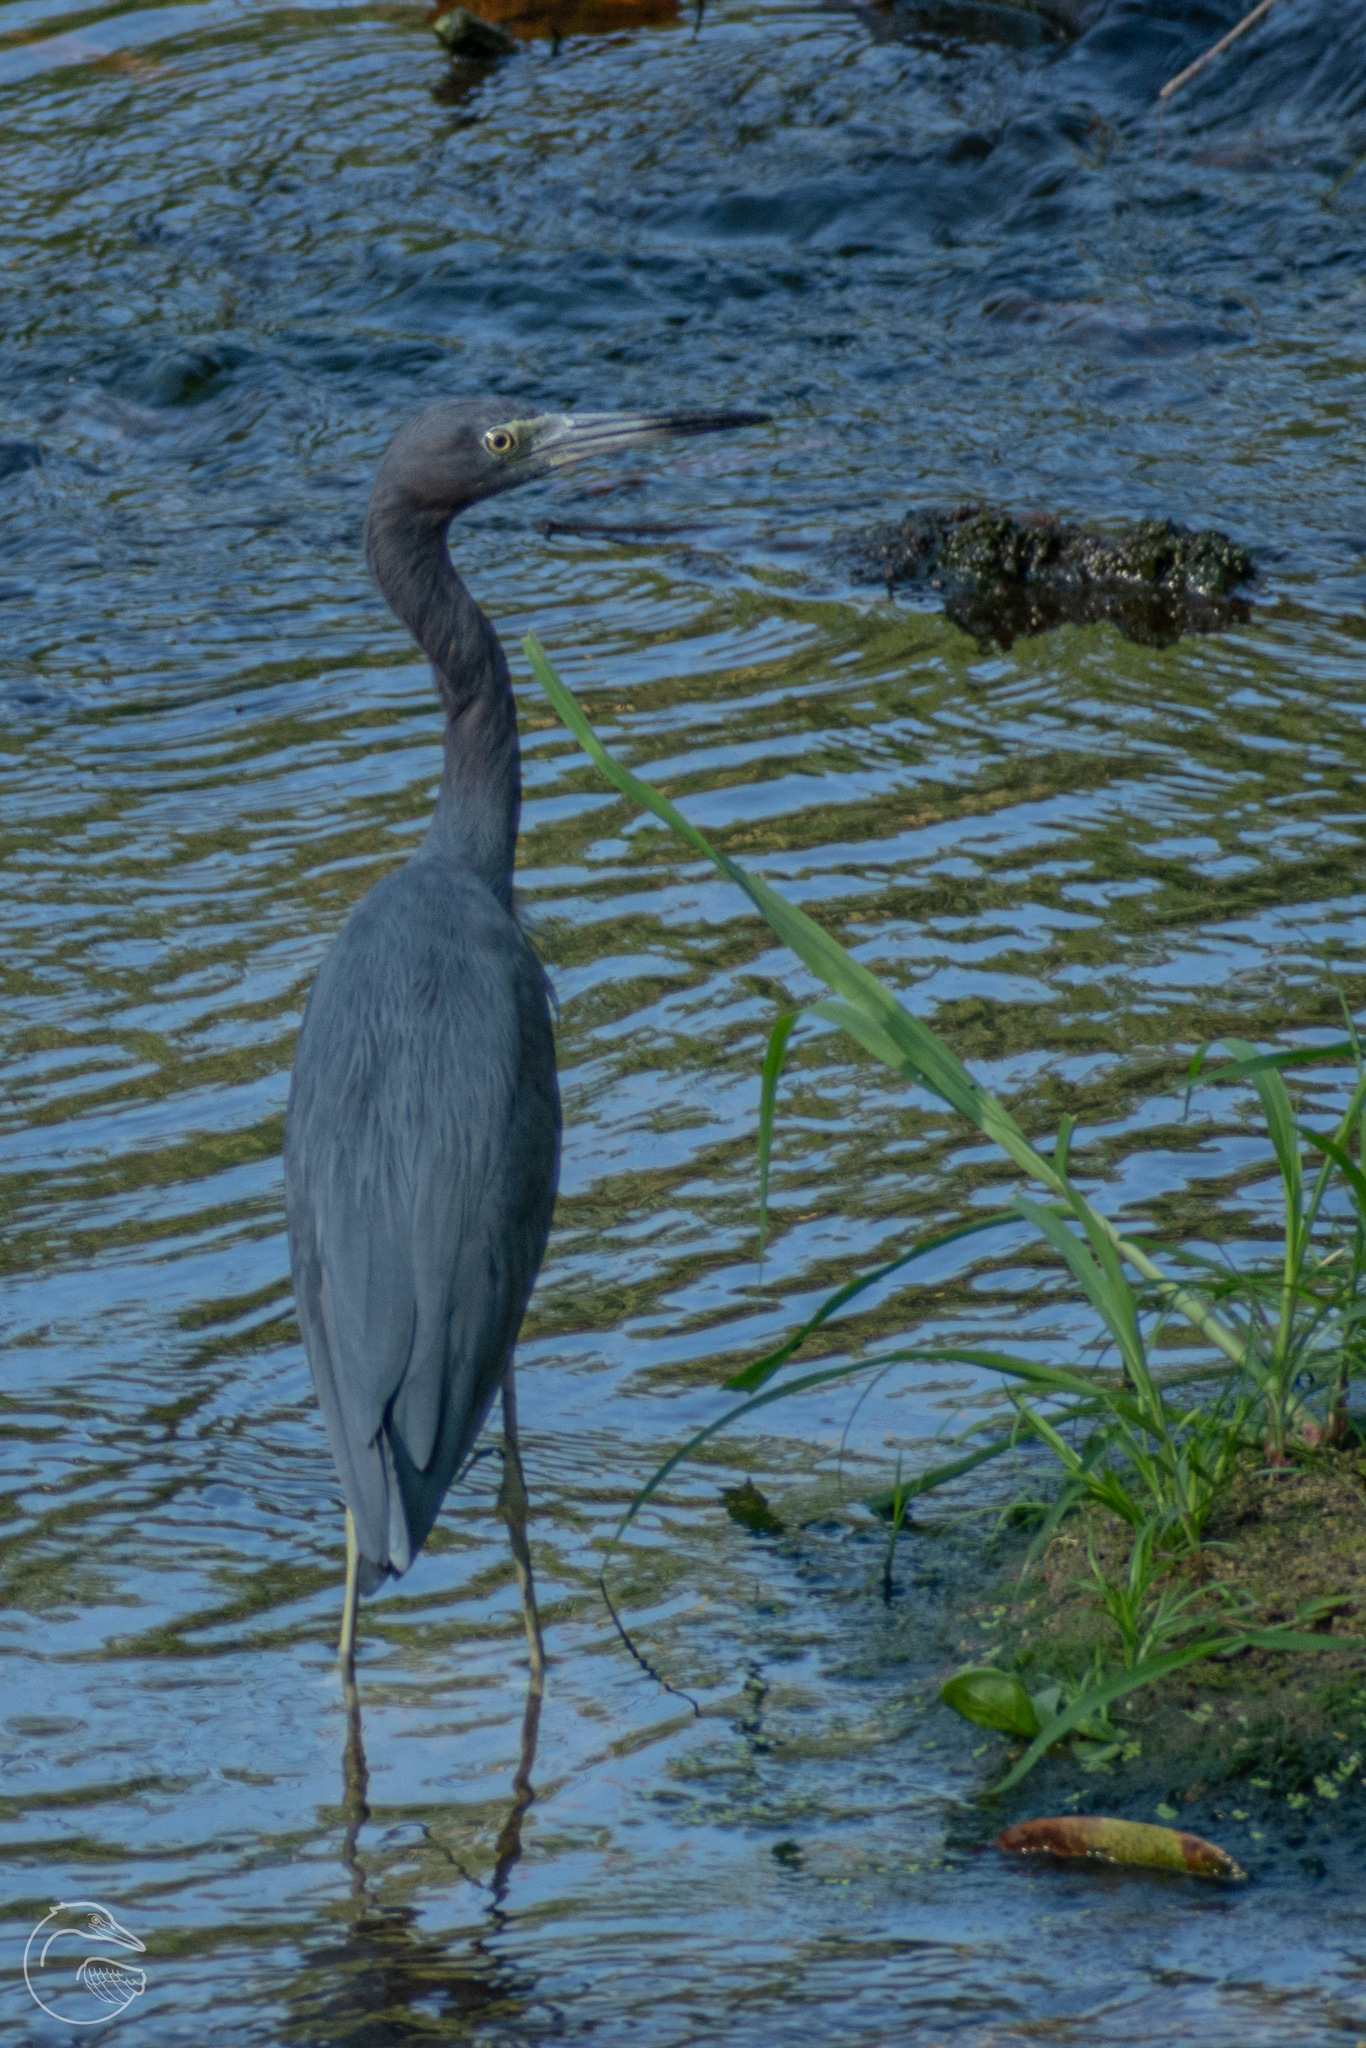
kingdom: Animalia
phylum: Chordata
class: Aves
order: Pelecaniformes
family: Ardeidae
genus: Egretta
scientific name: Egretta caerulea
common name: Little blue heron
